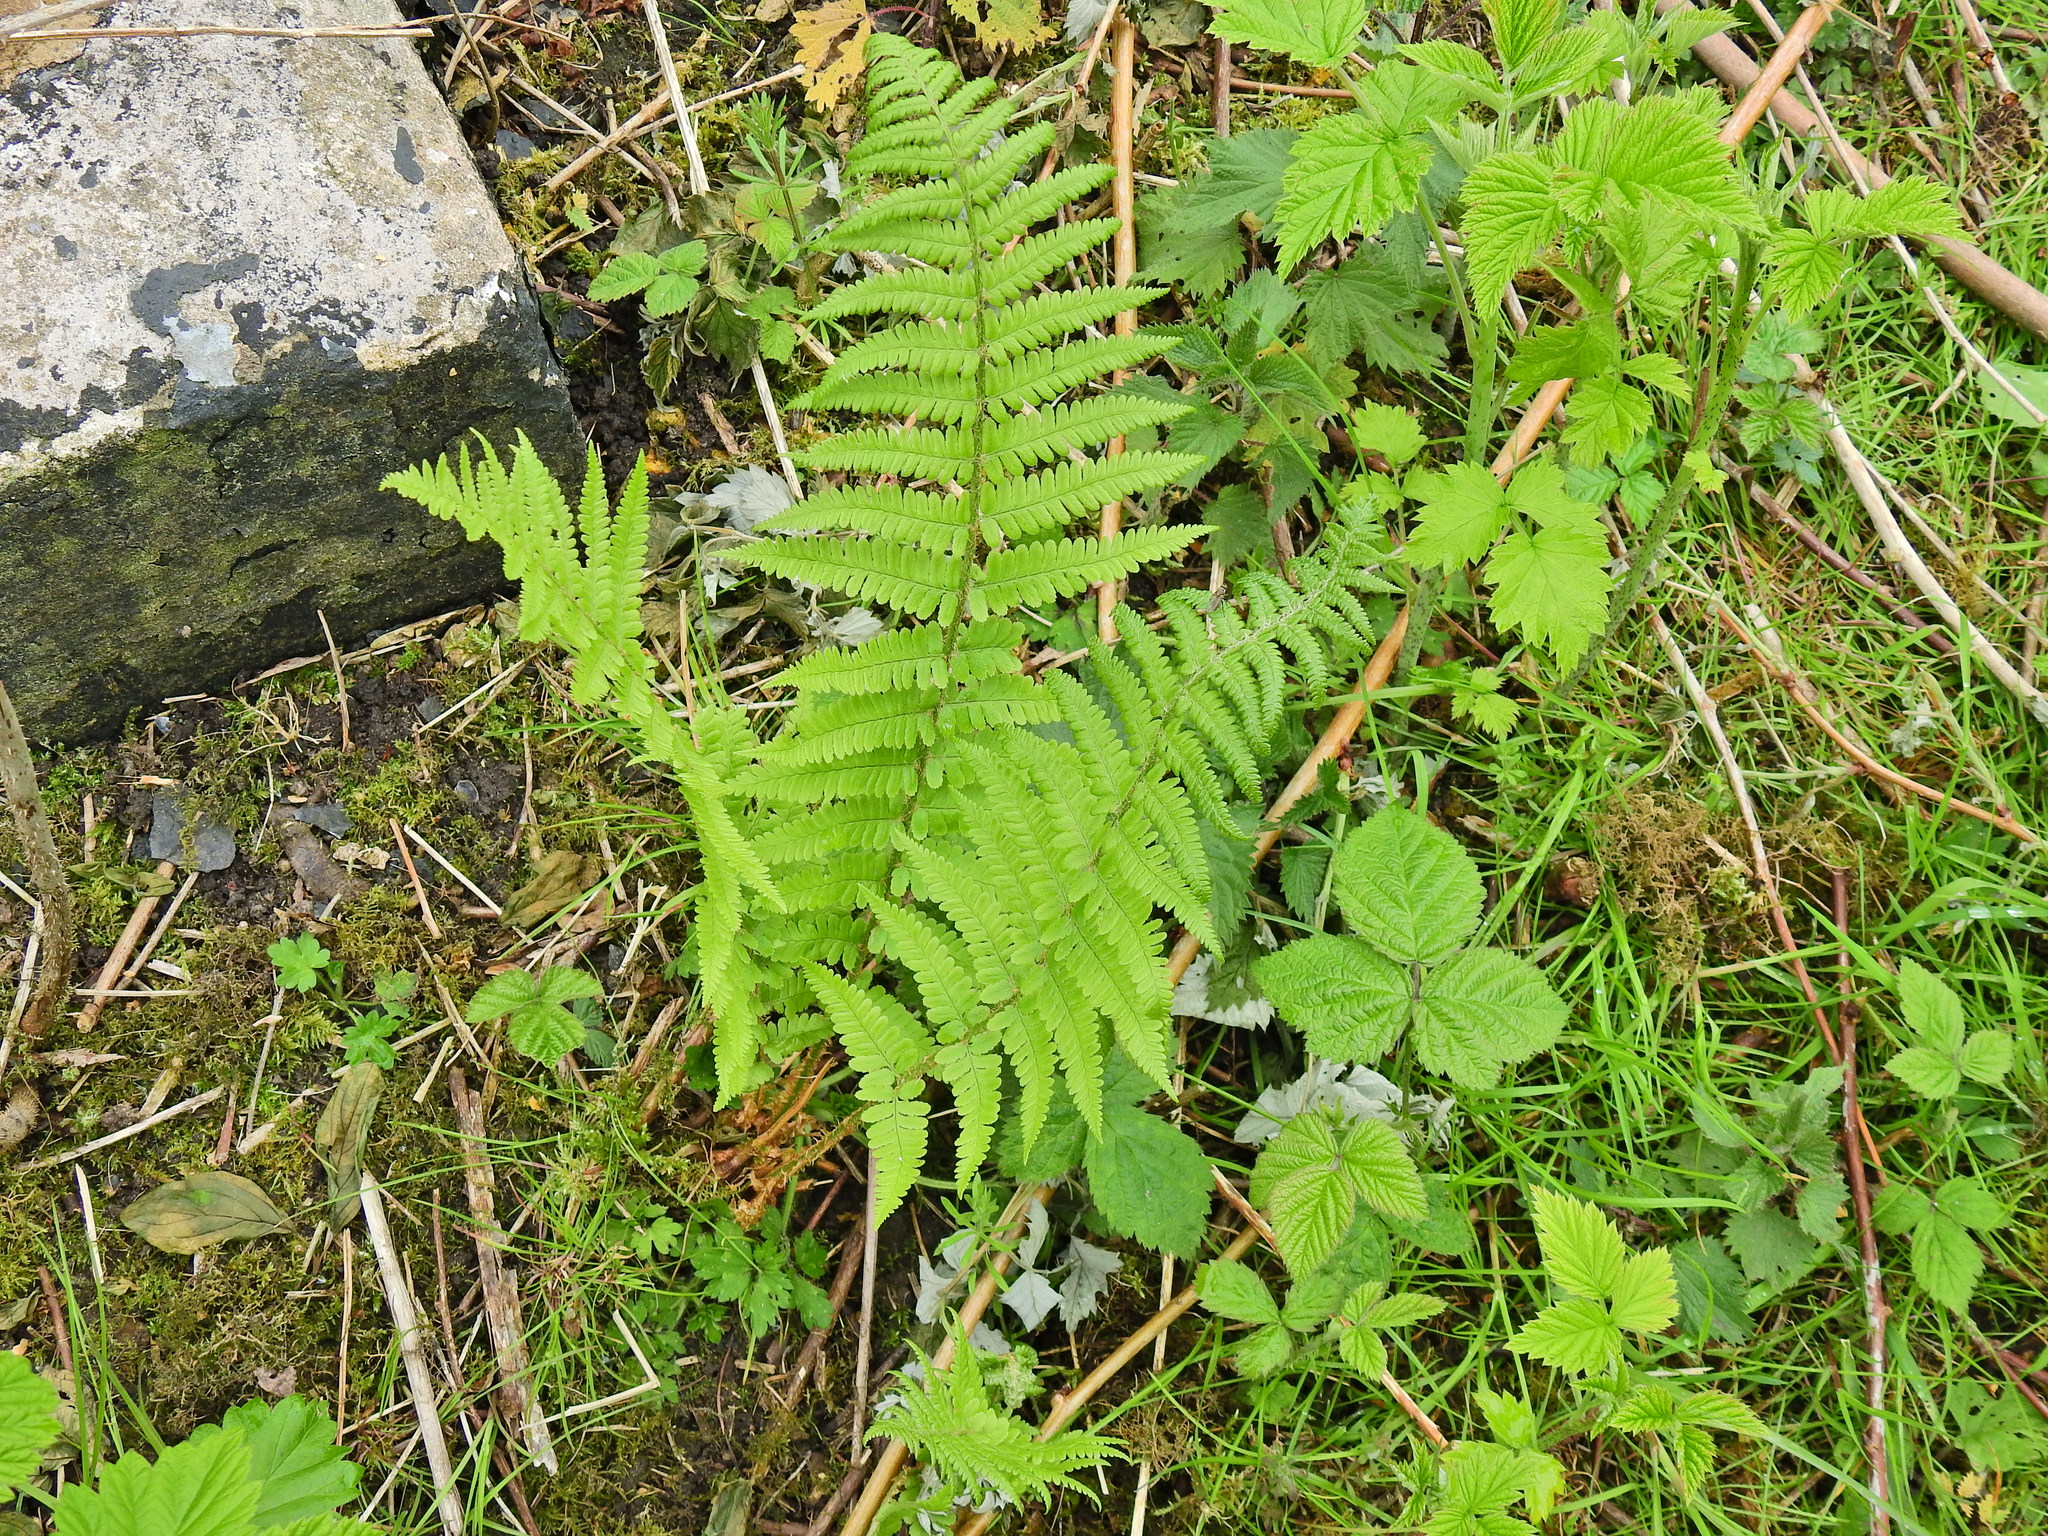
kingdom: Plantae
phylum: Tracheophyta
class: Polypodiopsida
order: Polypodiales
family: Dryopteridaceae
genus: Dryopteris
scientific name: Dryopteris filix-mas
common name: Male fern
